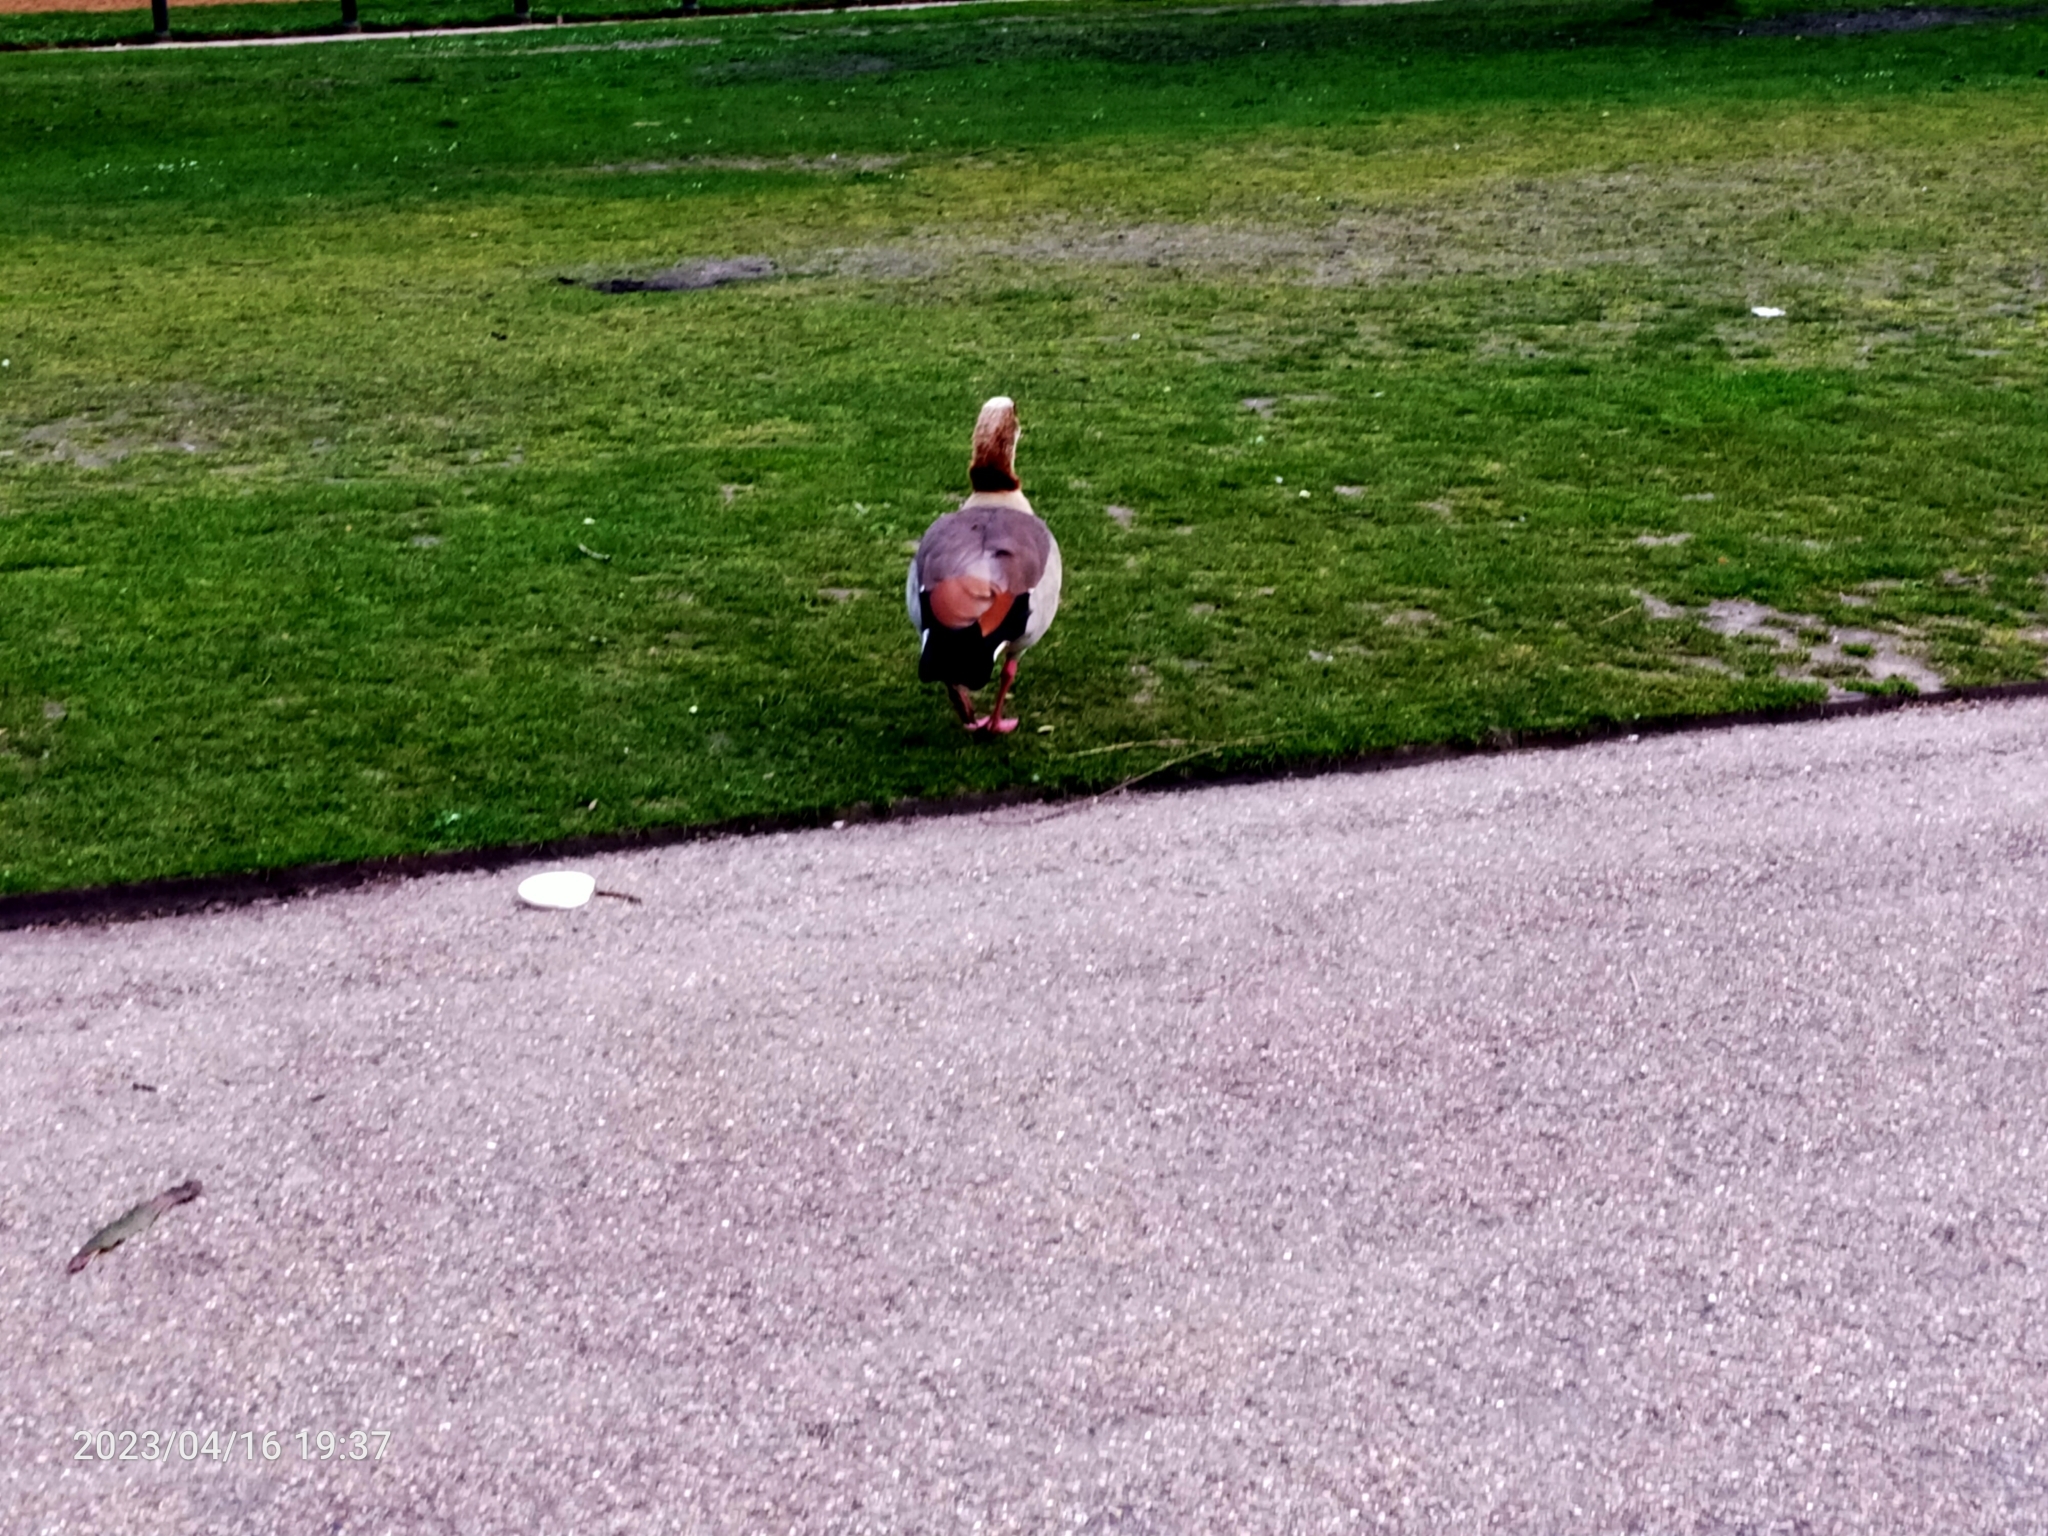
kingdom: Animalia
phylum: Chordata
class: Aves
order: Anseriformes
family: Anatidae
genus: Alopochen
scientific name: Alopochen aegyptiaca
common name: Egyptian goose
